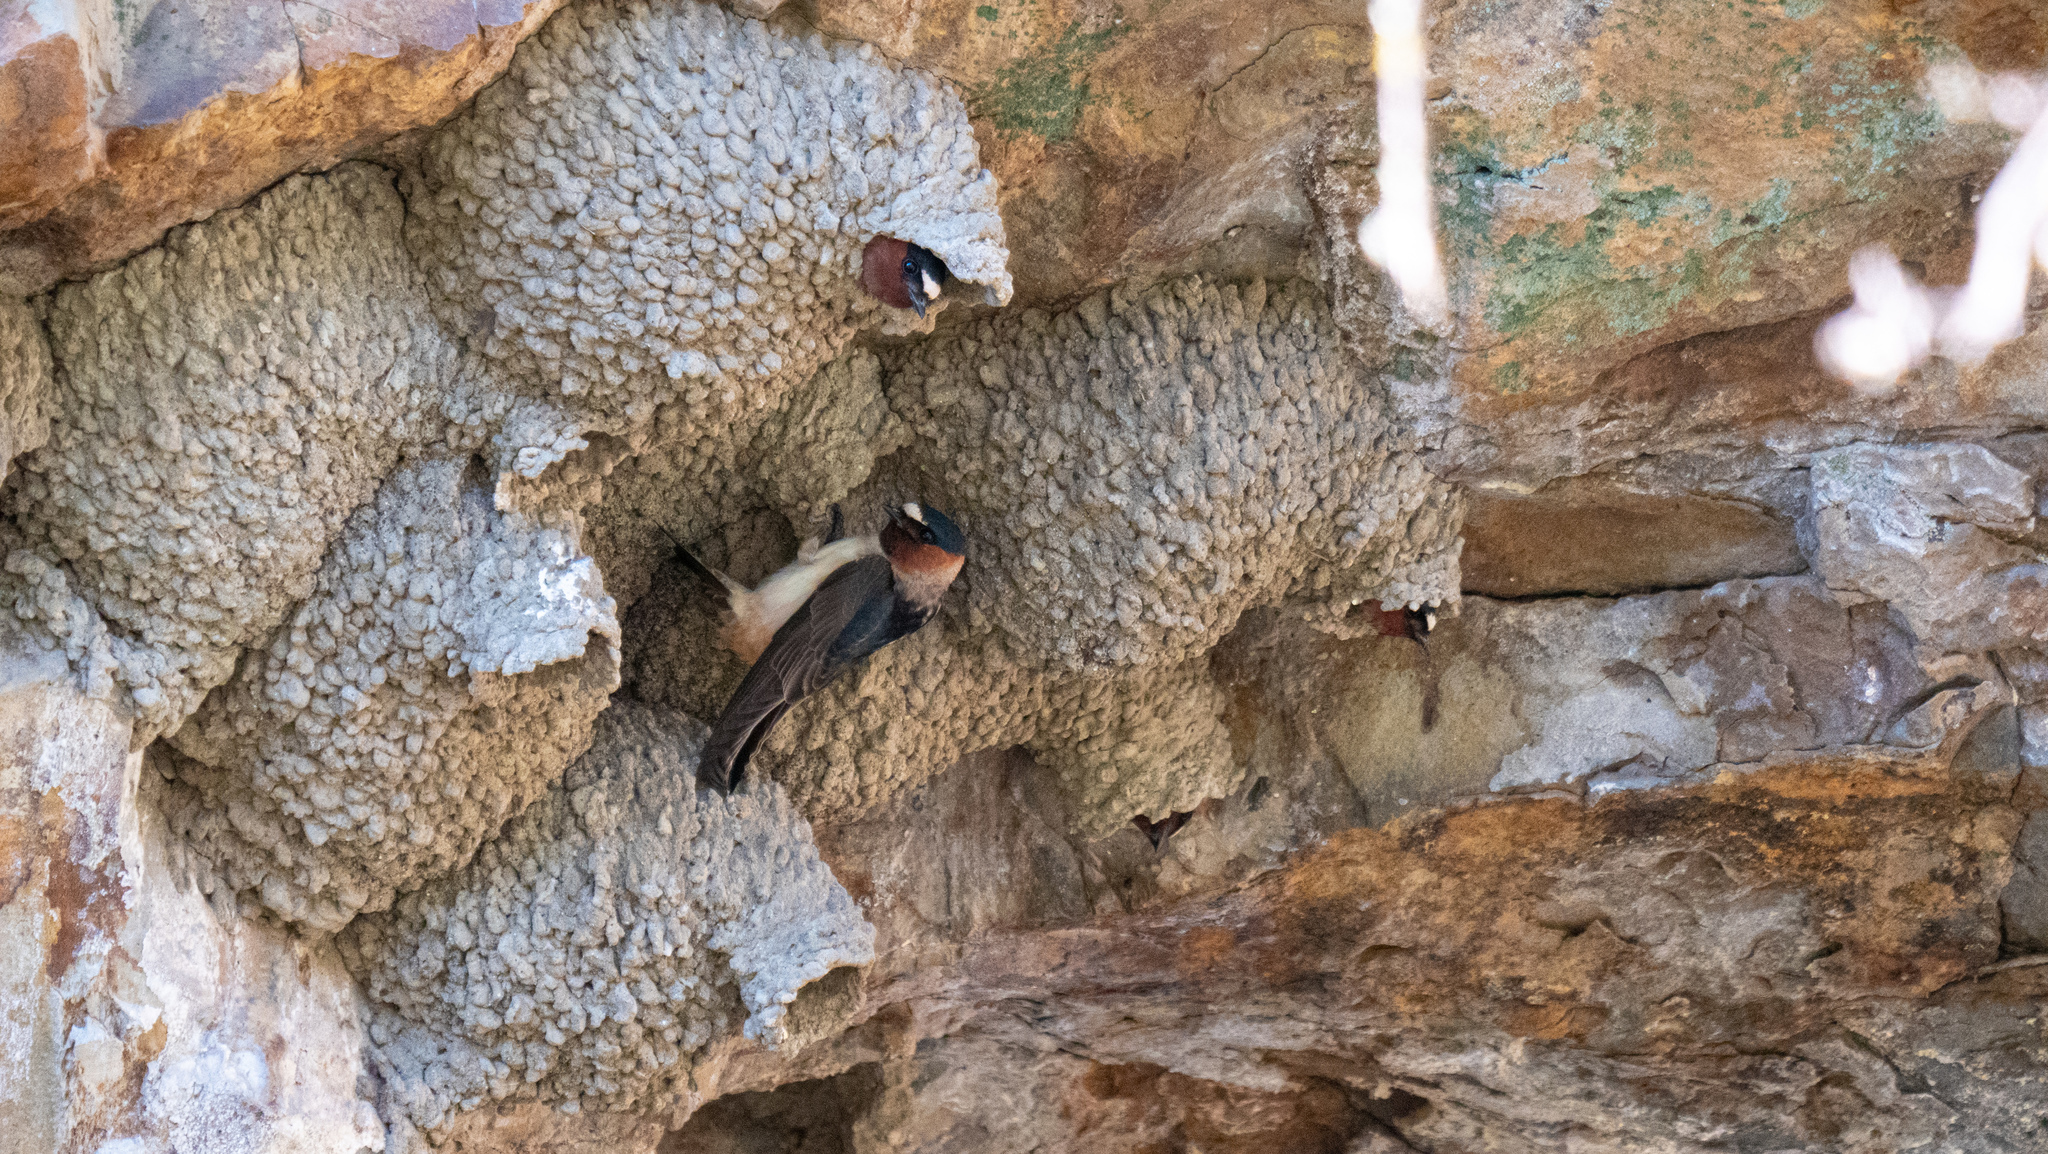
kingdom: Animalia
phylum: Chordata
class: Aves
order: Passeriformes
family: Hirundinidae
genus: Petrochelidon
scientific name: Petrochelidon pyrrhonota
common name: American cliff swallow
